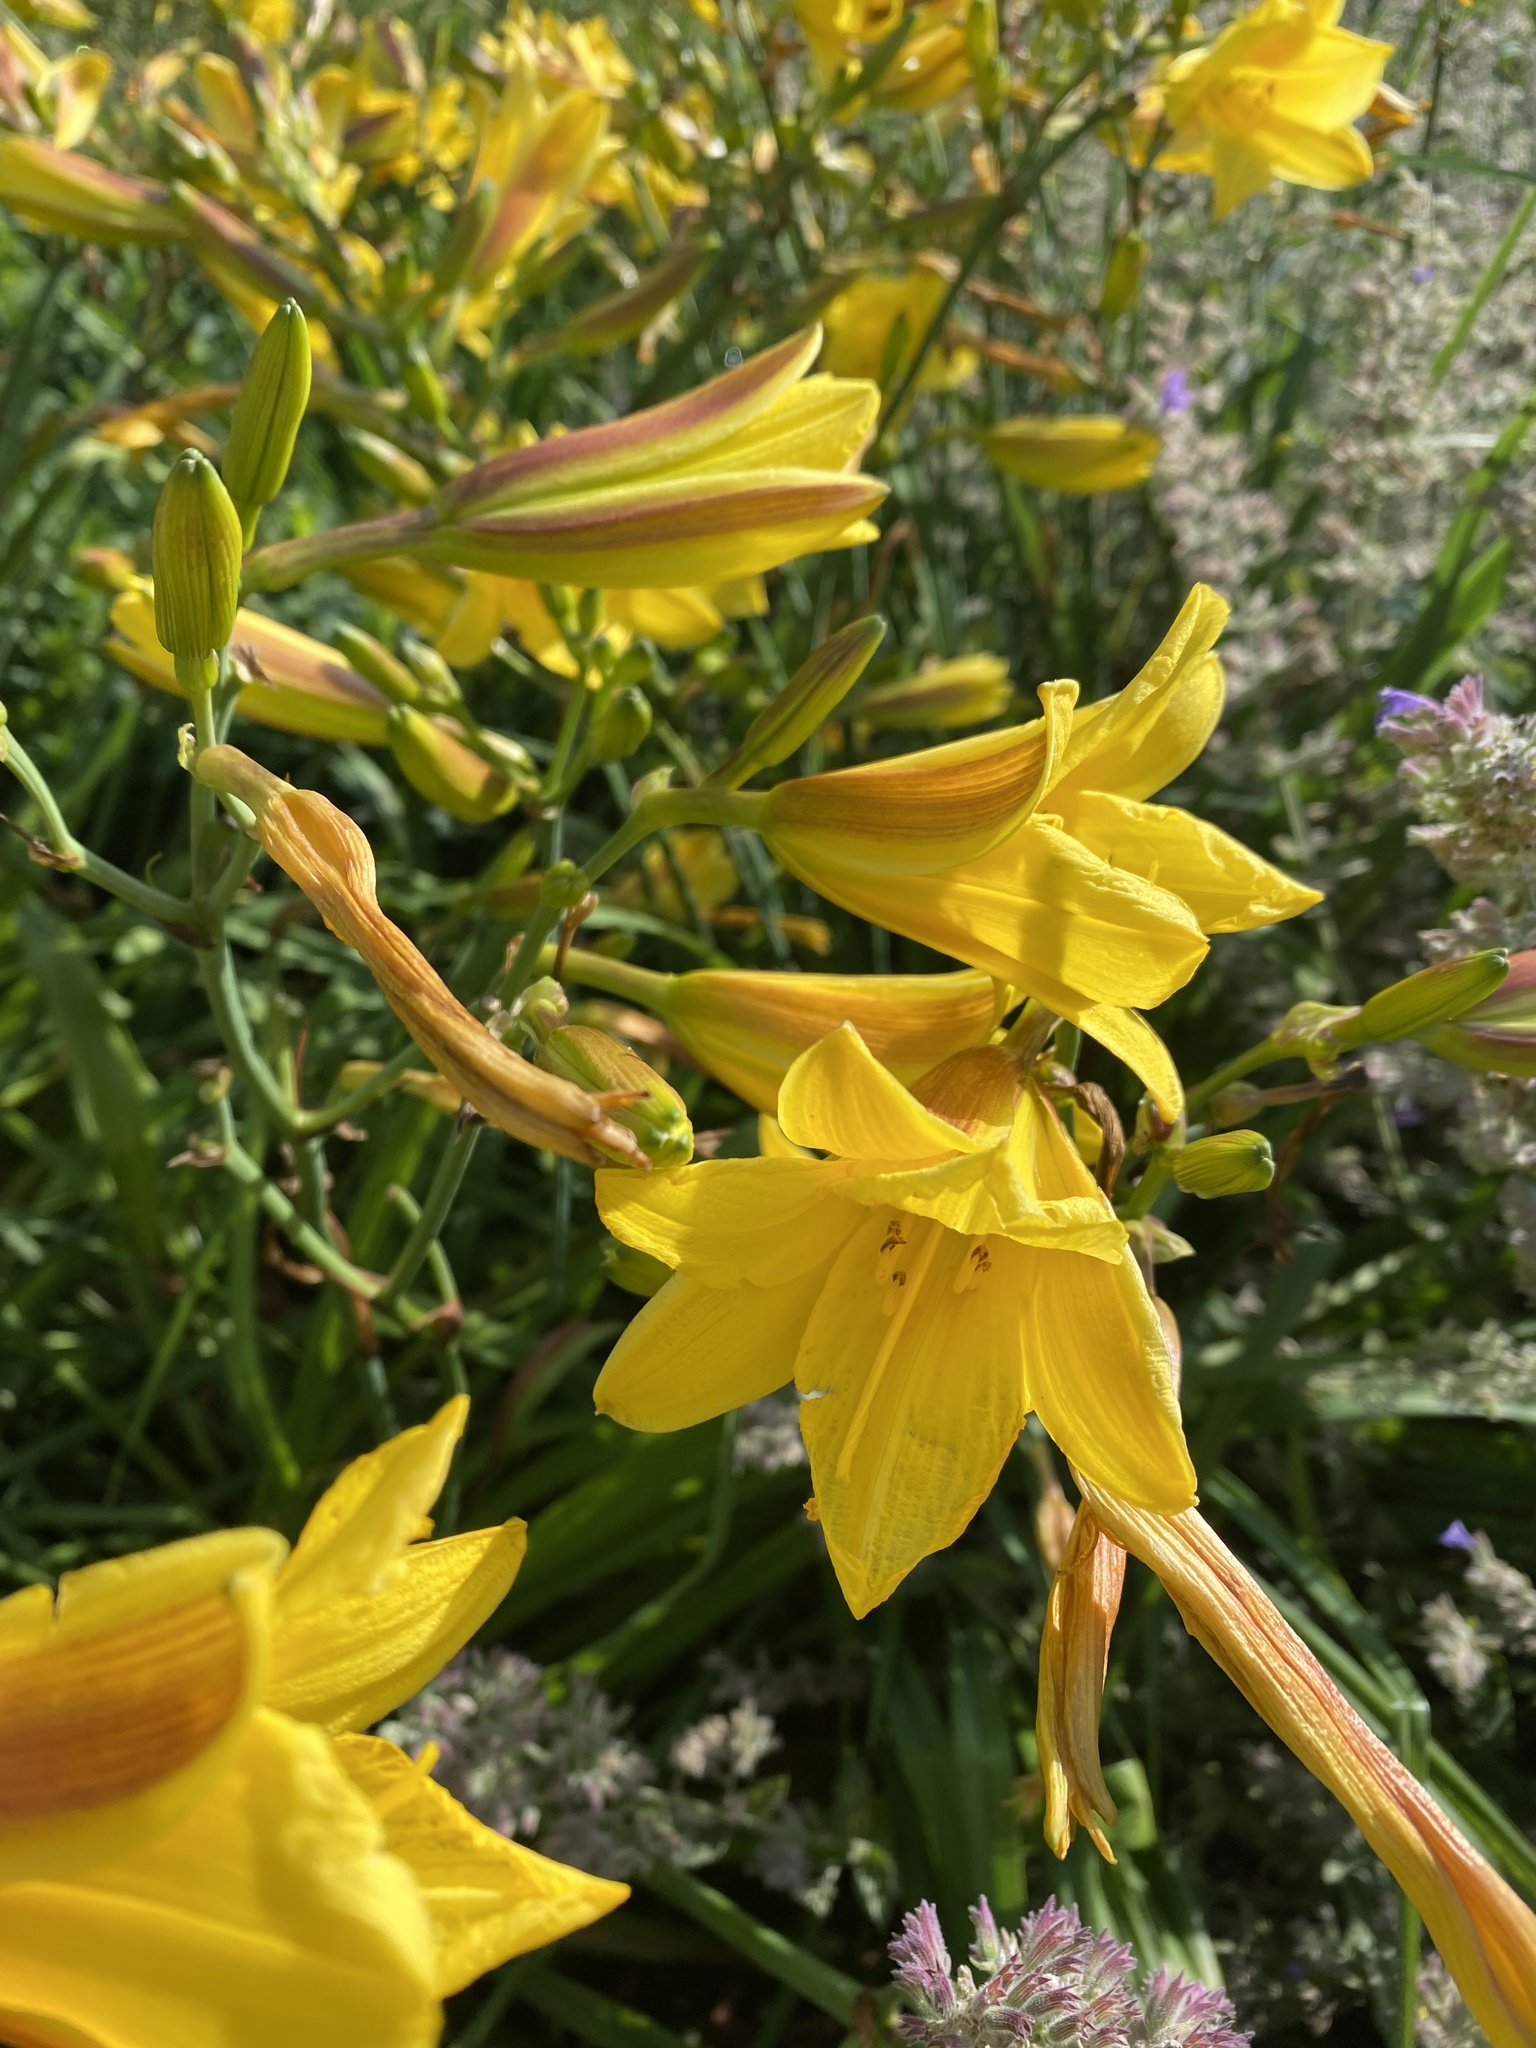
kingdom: Plantae
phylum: Tracheophyta
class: Liliopsida
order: Asparagales
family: Asphodelaceae
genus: Hemerocallis
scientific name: Hemerocallis dumortieri
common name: Dumortier's day-lily
